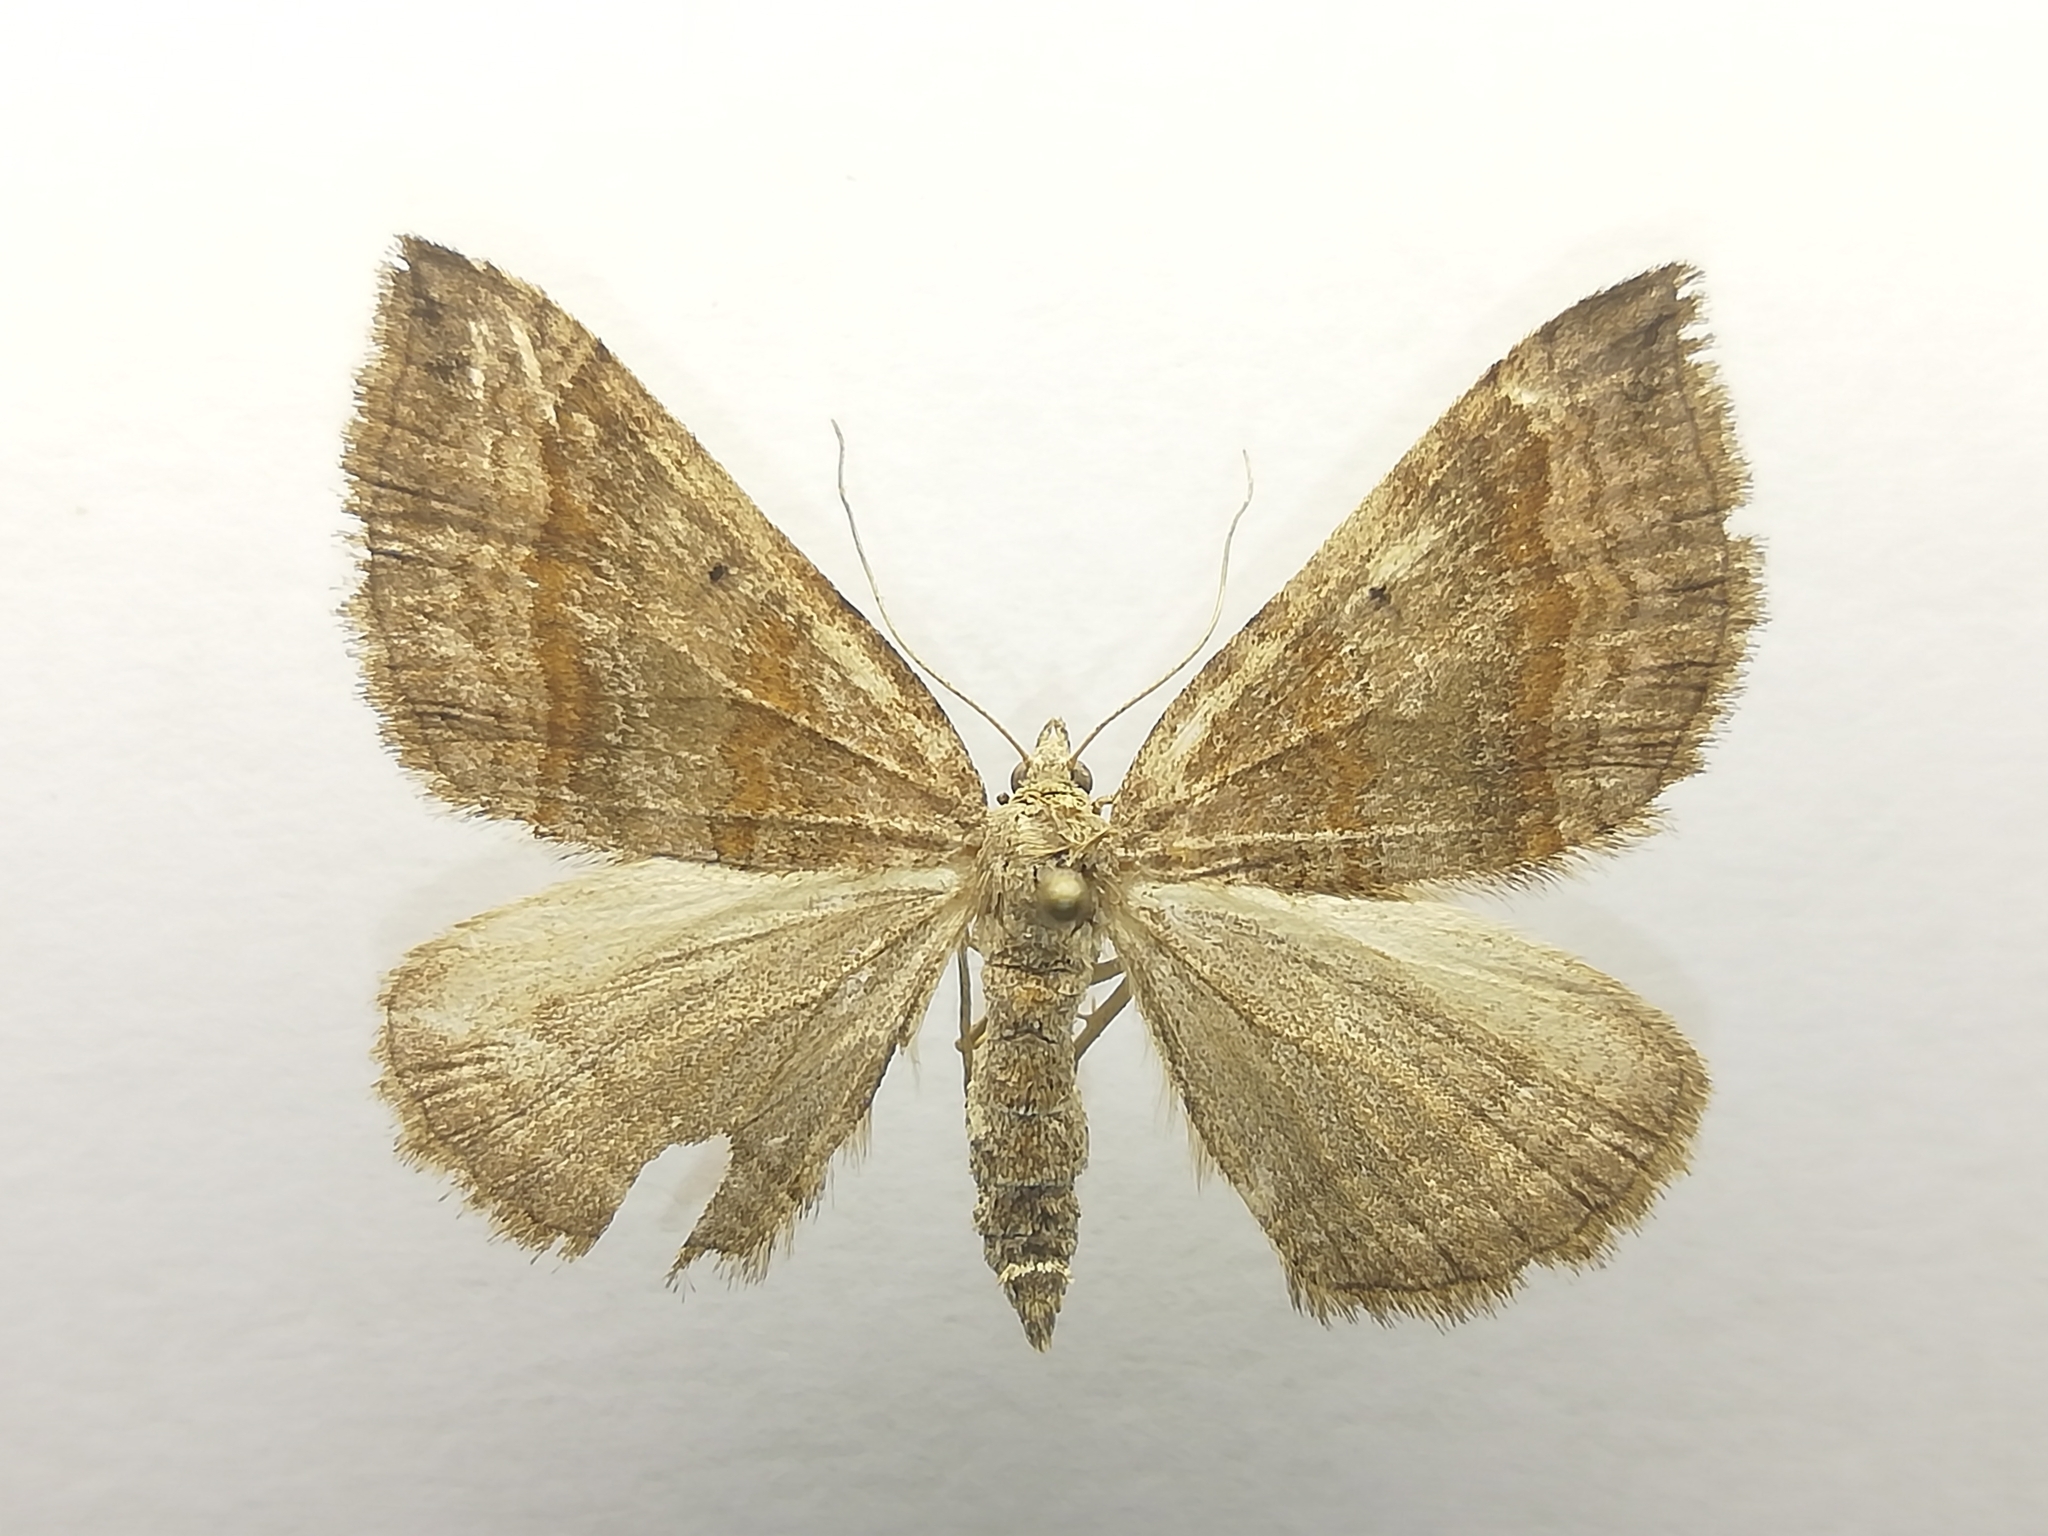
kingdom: Animalia
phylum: Arthropoda
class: Insecta
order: Lepidoptera
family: Geometridae
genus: Scotopteryx
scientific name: Scotopteryx chenopodiata
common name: Shaded broad-bar
